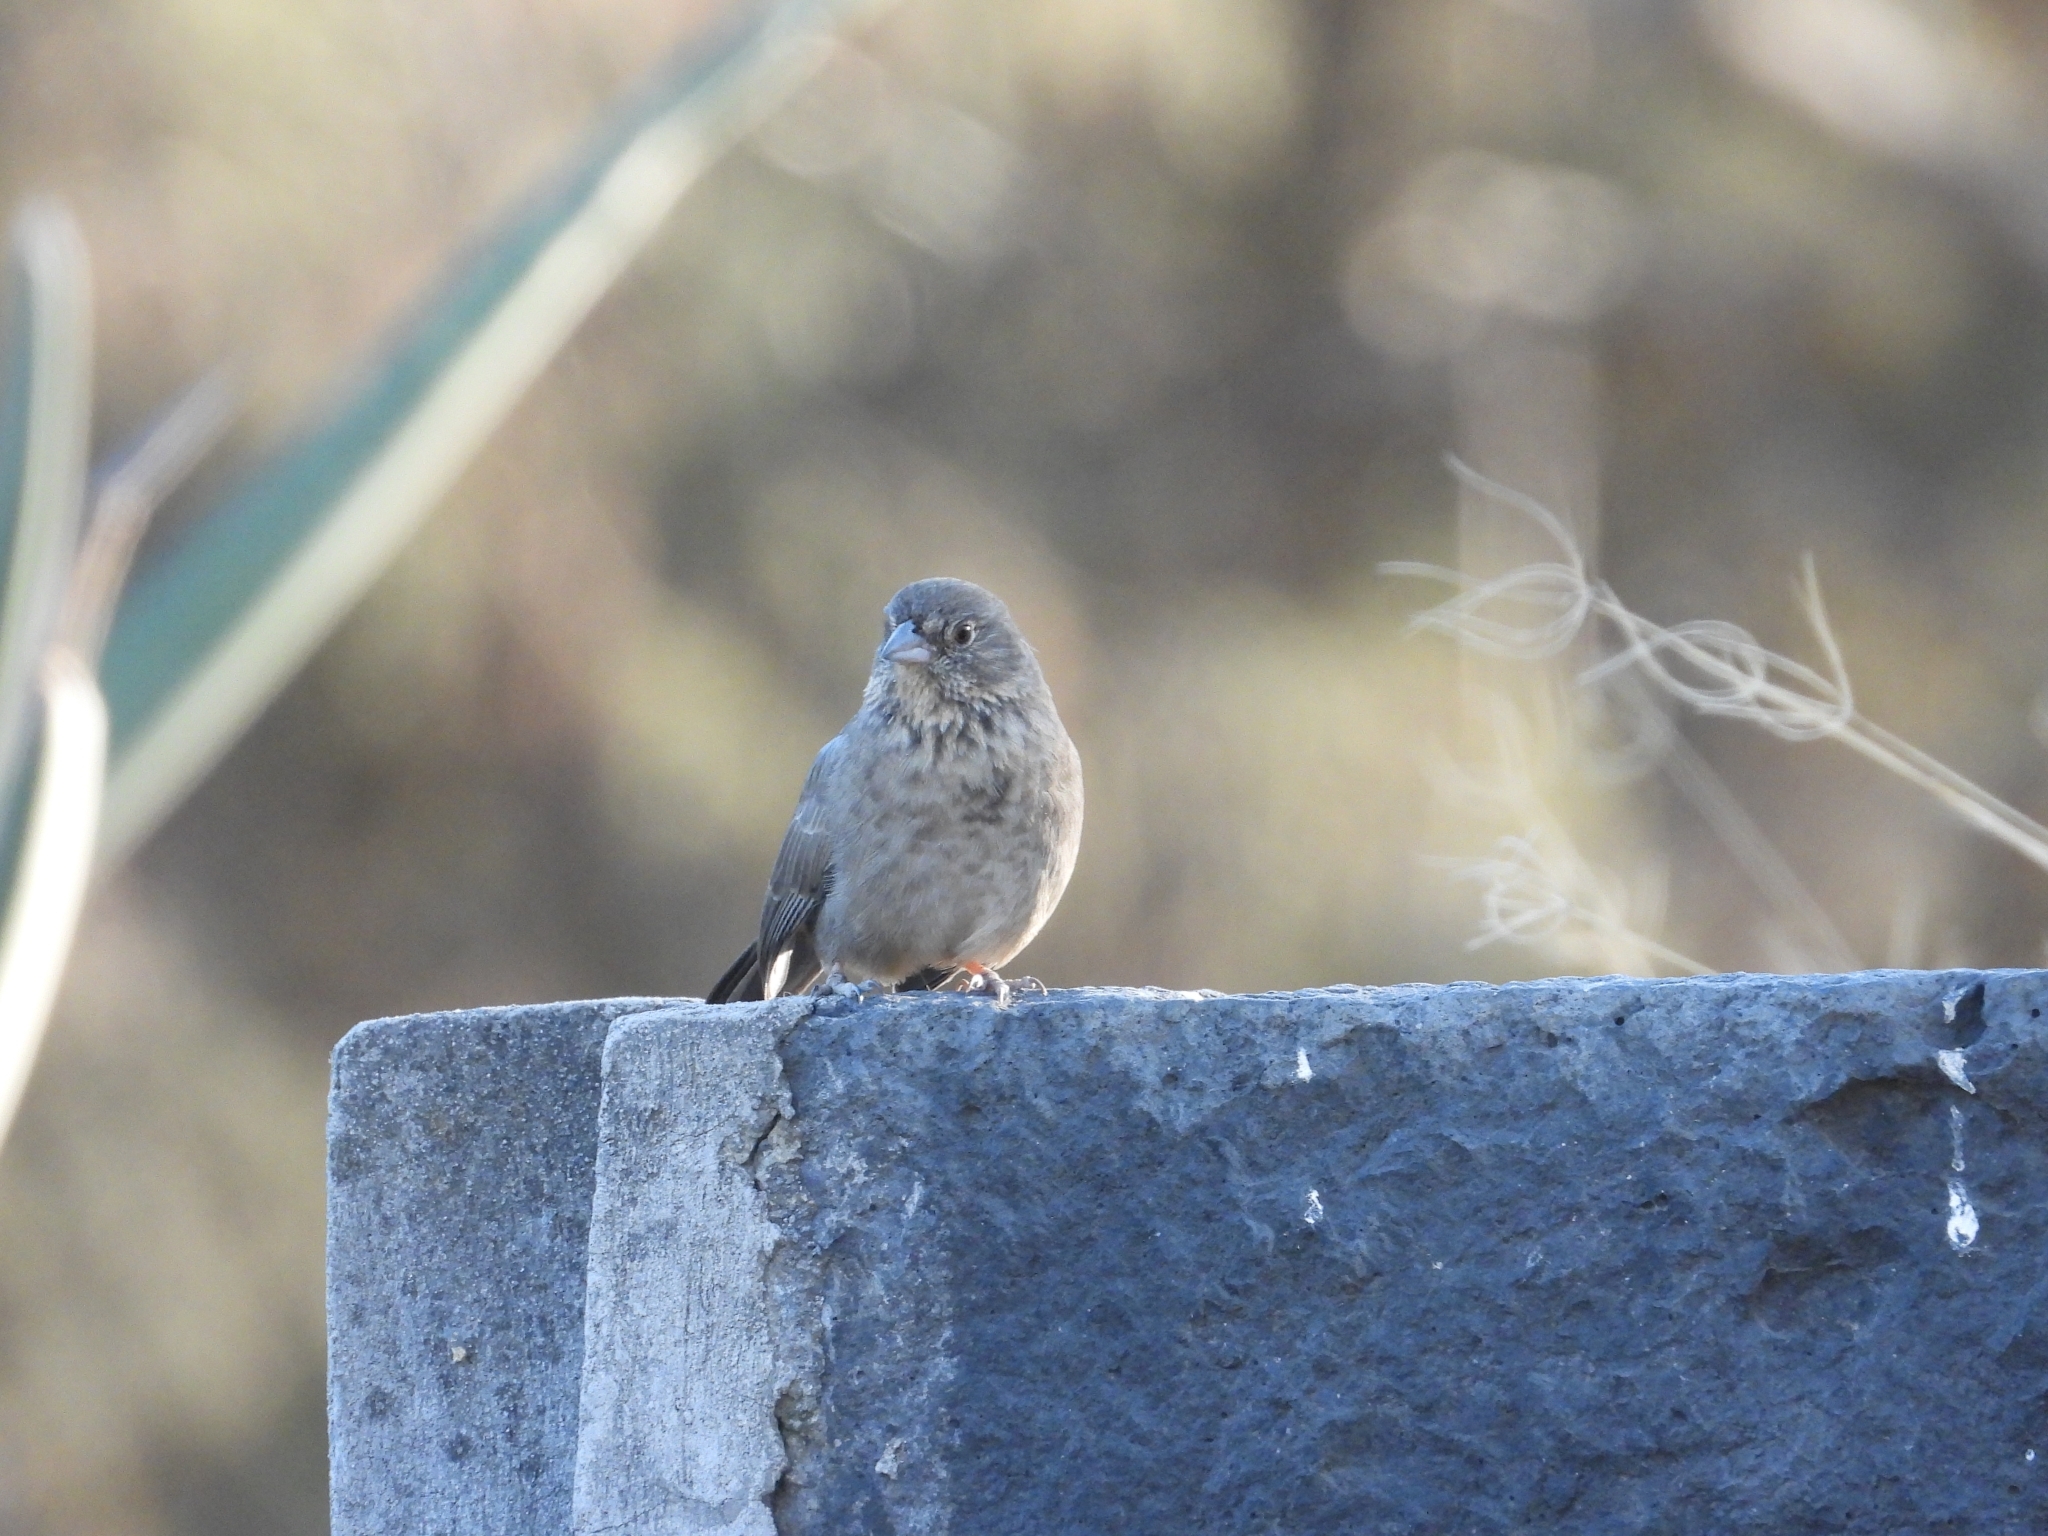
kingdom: Animalia
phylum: Chordata
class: Aves
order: Passeriformes
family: Passerellidae
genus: Melozone
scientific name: Melozone fusca
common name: Canyon towhee
